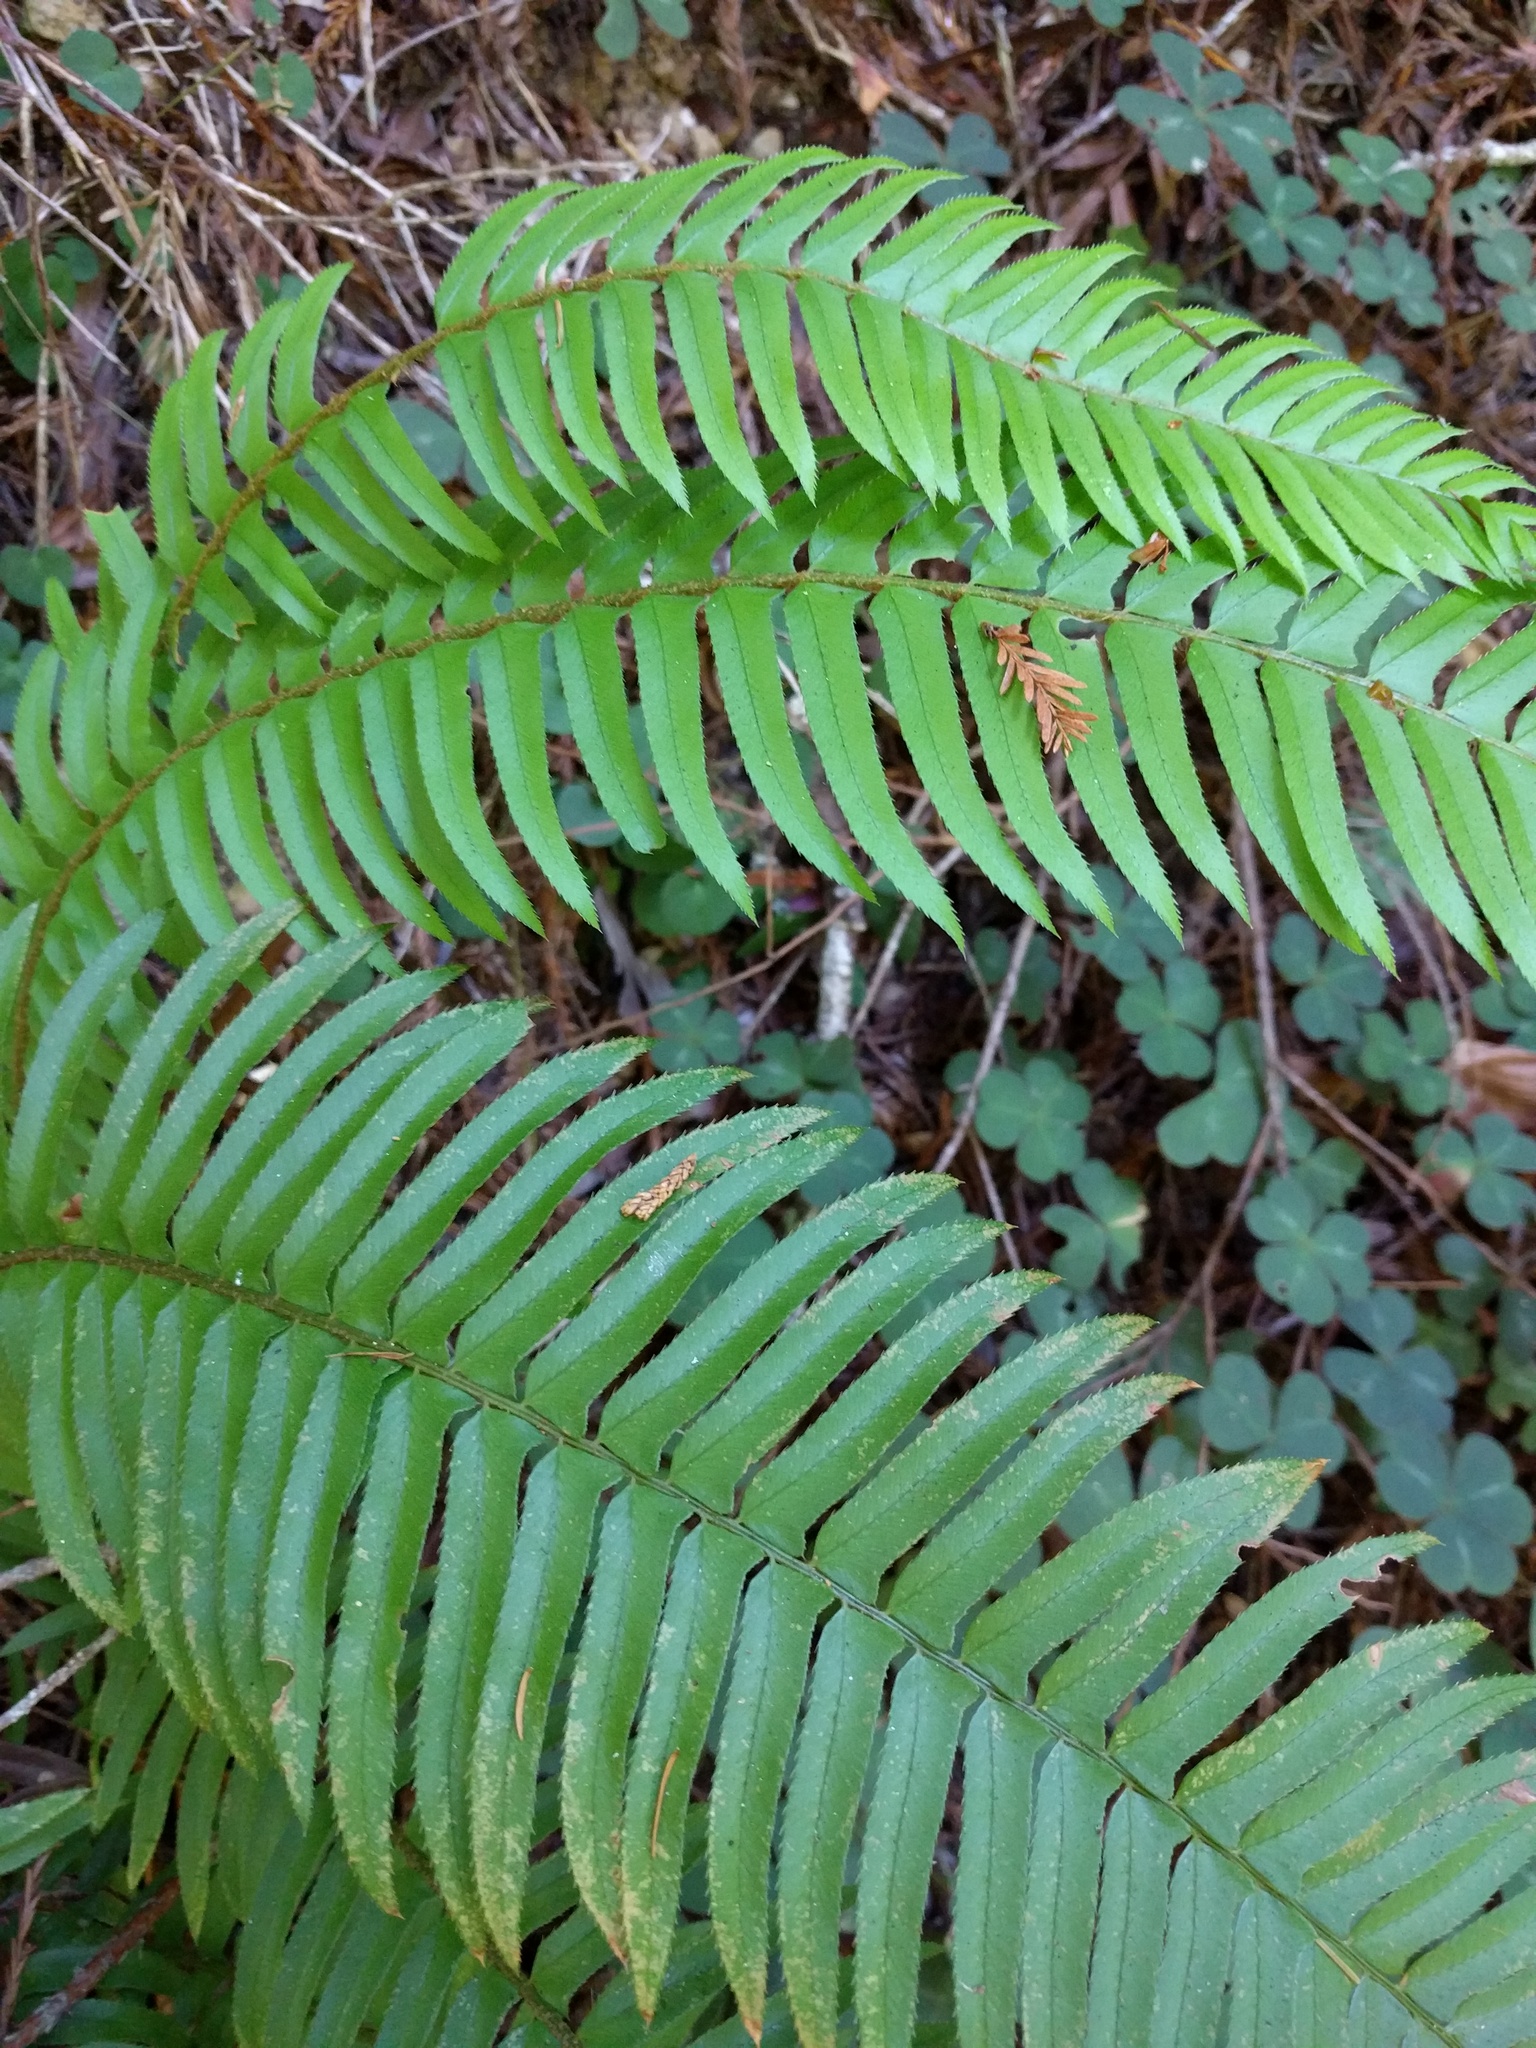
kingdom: Plantae
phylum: Tracheophyta
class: Polypodiopsida
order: Polypodiales
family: Dryopteridaceae
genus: Polystichum
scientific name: Polystichum munitum
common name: Western sword-fern
